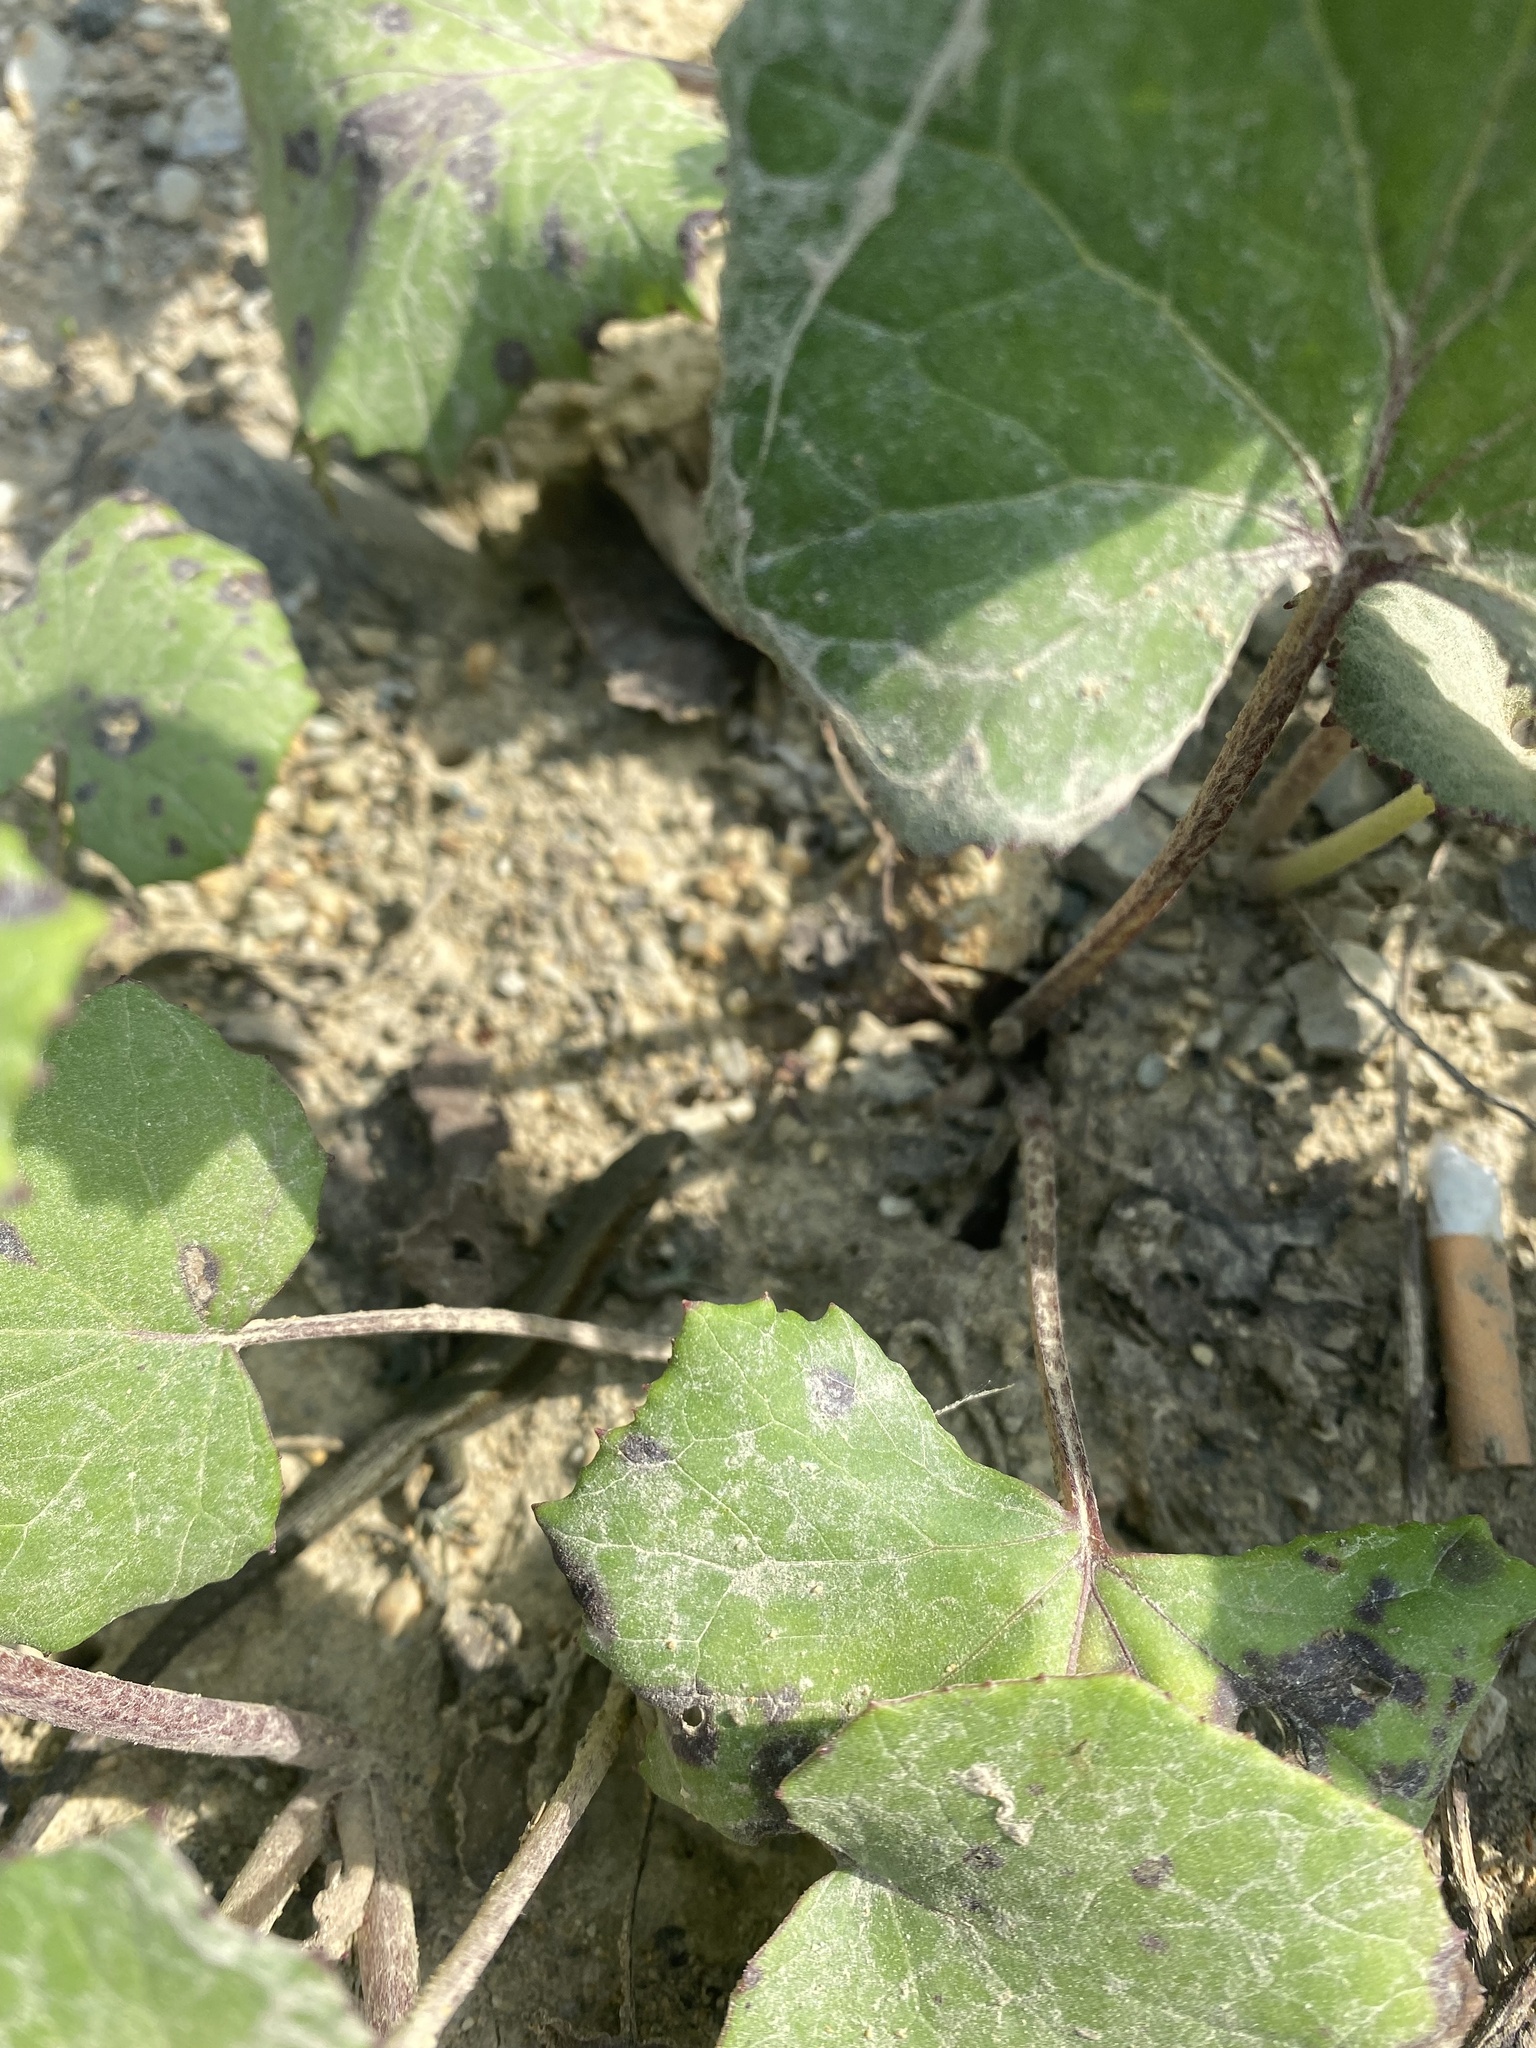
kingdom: Plantae
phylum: Tracheophyta
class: Magnoliopsida
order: Asterales
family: Asteraceae
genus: Tussilago
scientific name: Tussilago farfara
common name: Coltsfoot
